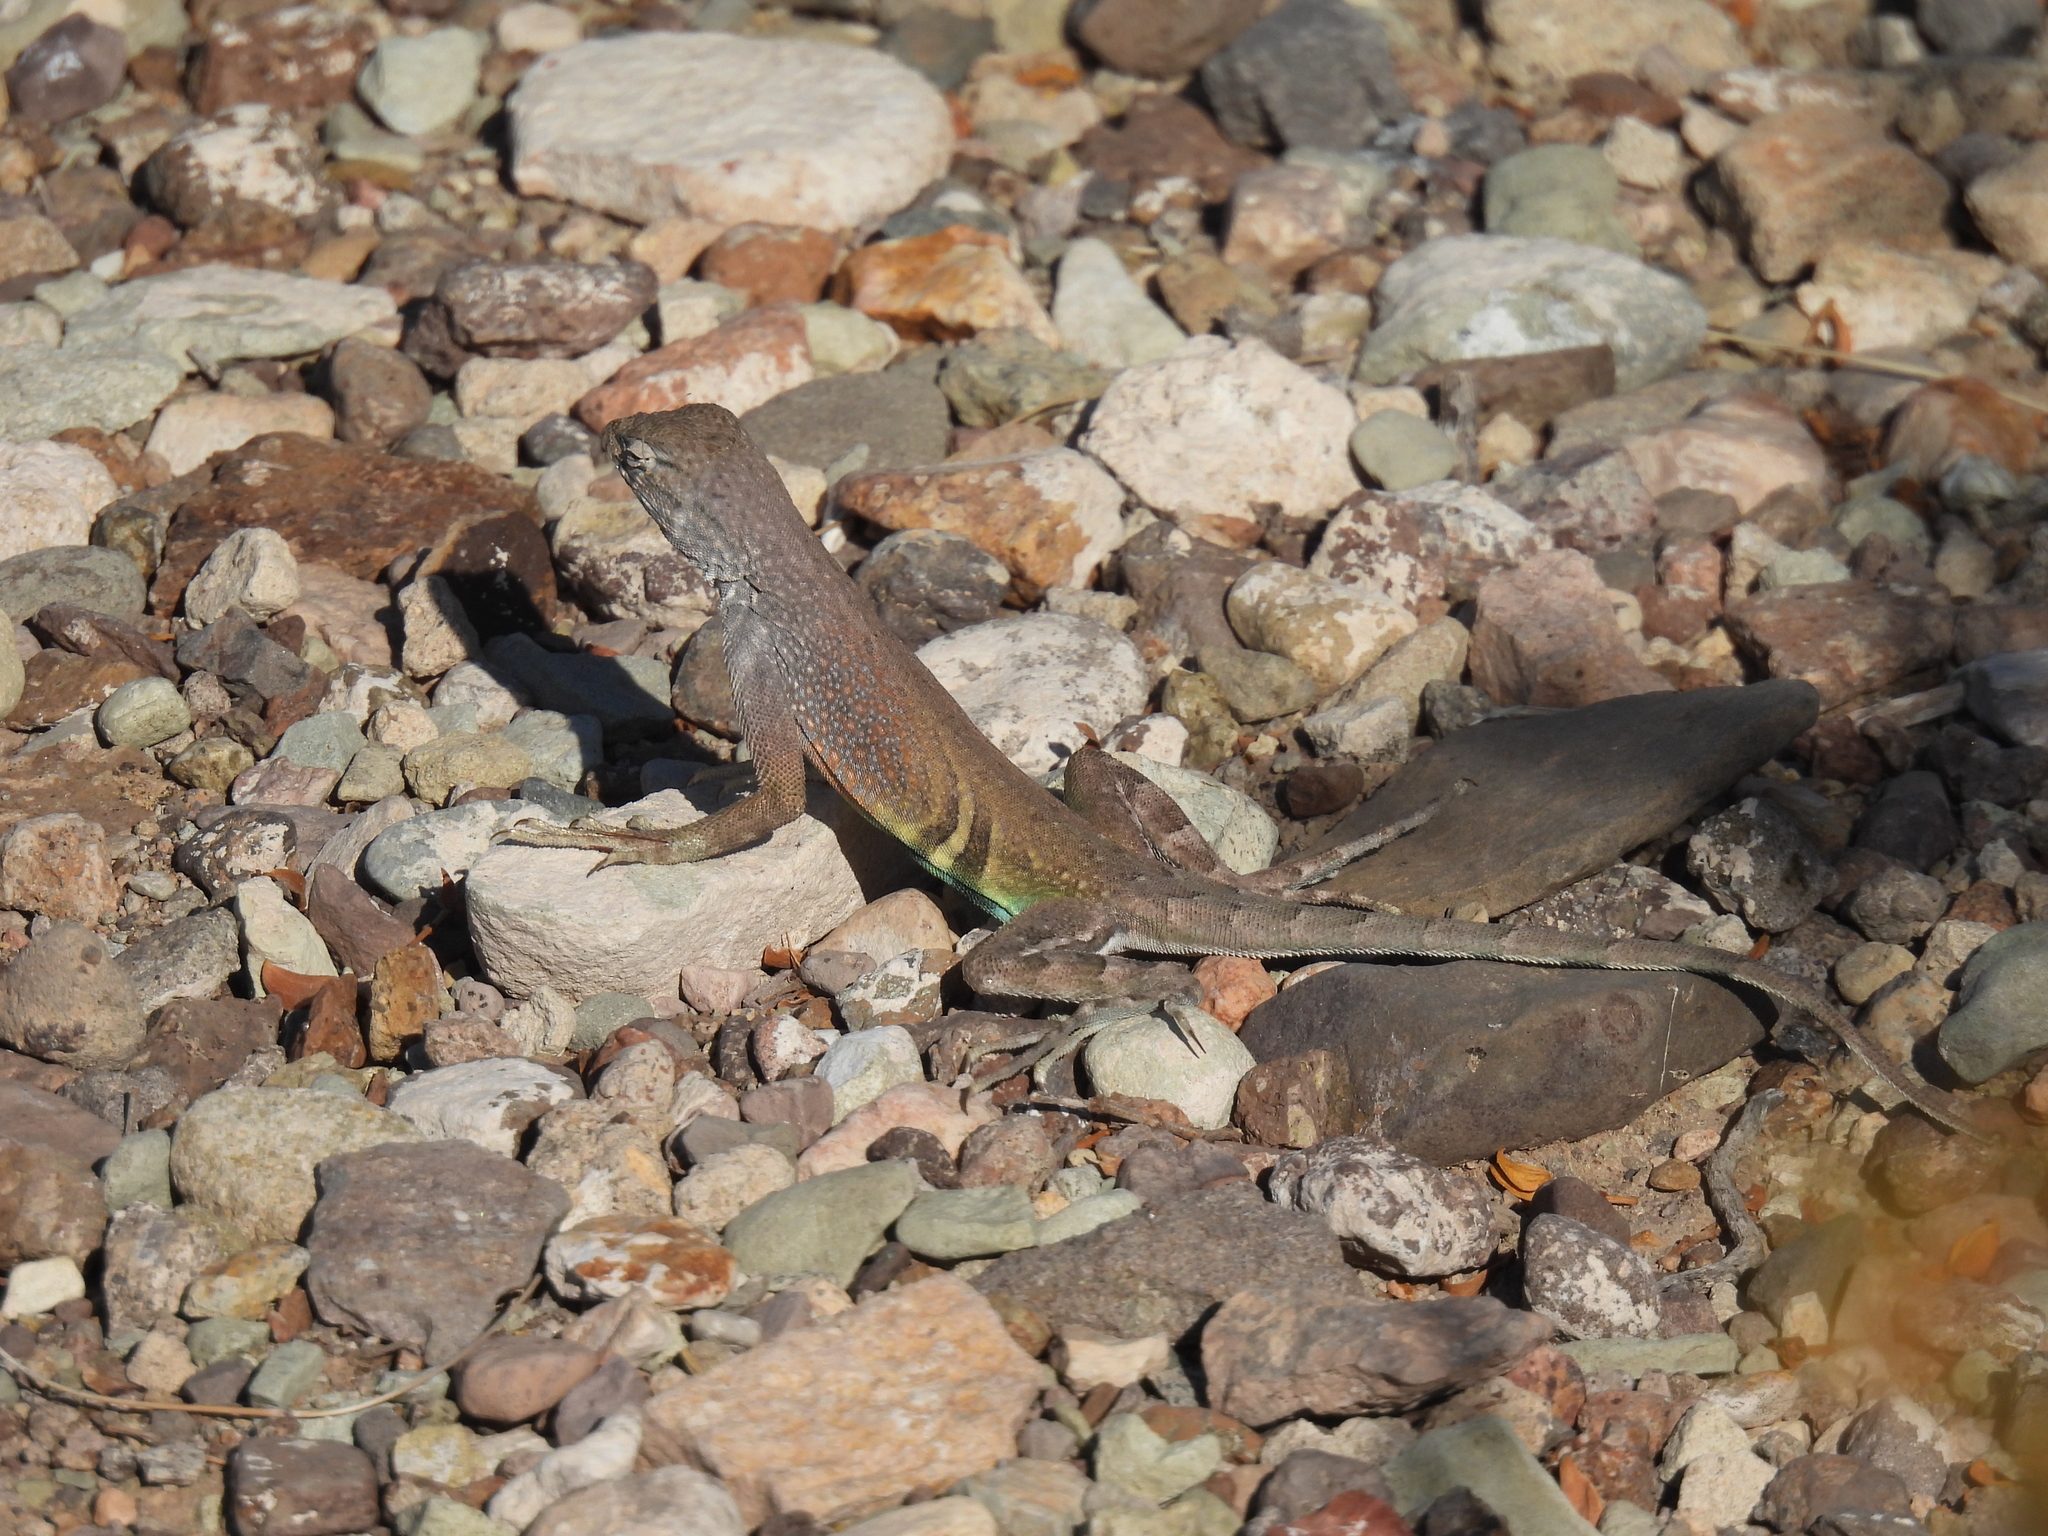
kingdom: Animalia
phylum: Chordata
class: Squamata
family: Phrynosomatidae
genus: Cophosaurus
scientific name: Cophosaurus texanus
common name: Greater earless lizard
